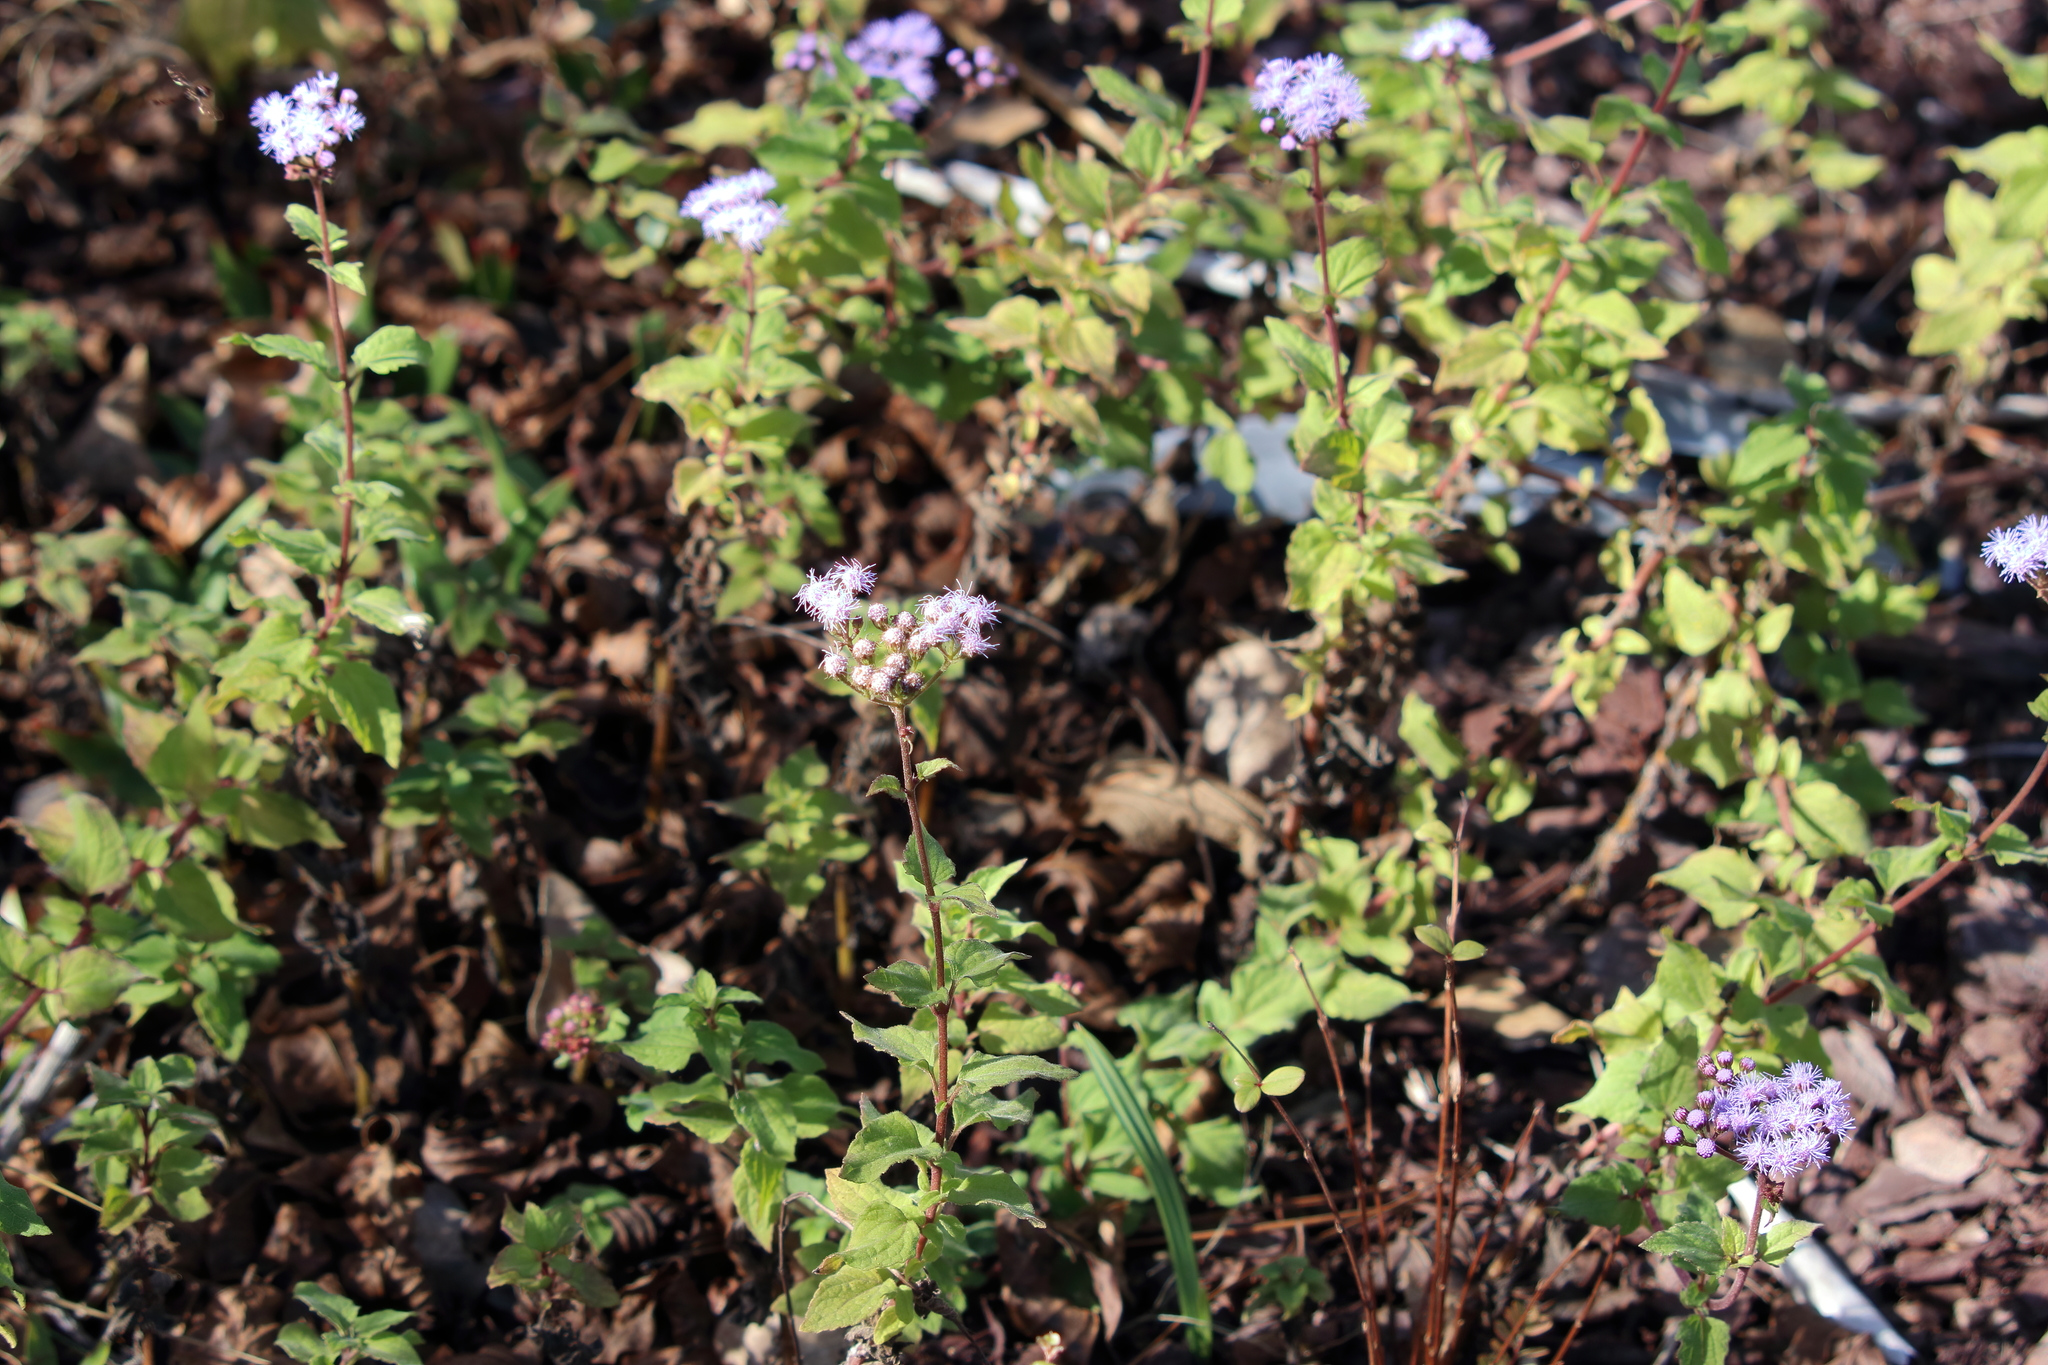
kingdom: Plantae
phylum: Tracheophyta
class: Magnoliopsida
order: Asterales
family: Asteraceae
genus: Conoclinium
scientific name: Conoclinium coelestinum
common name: Blue mistflower
